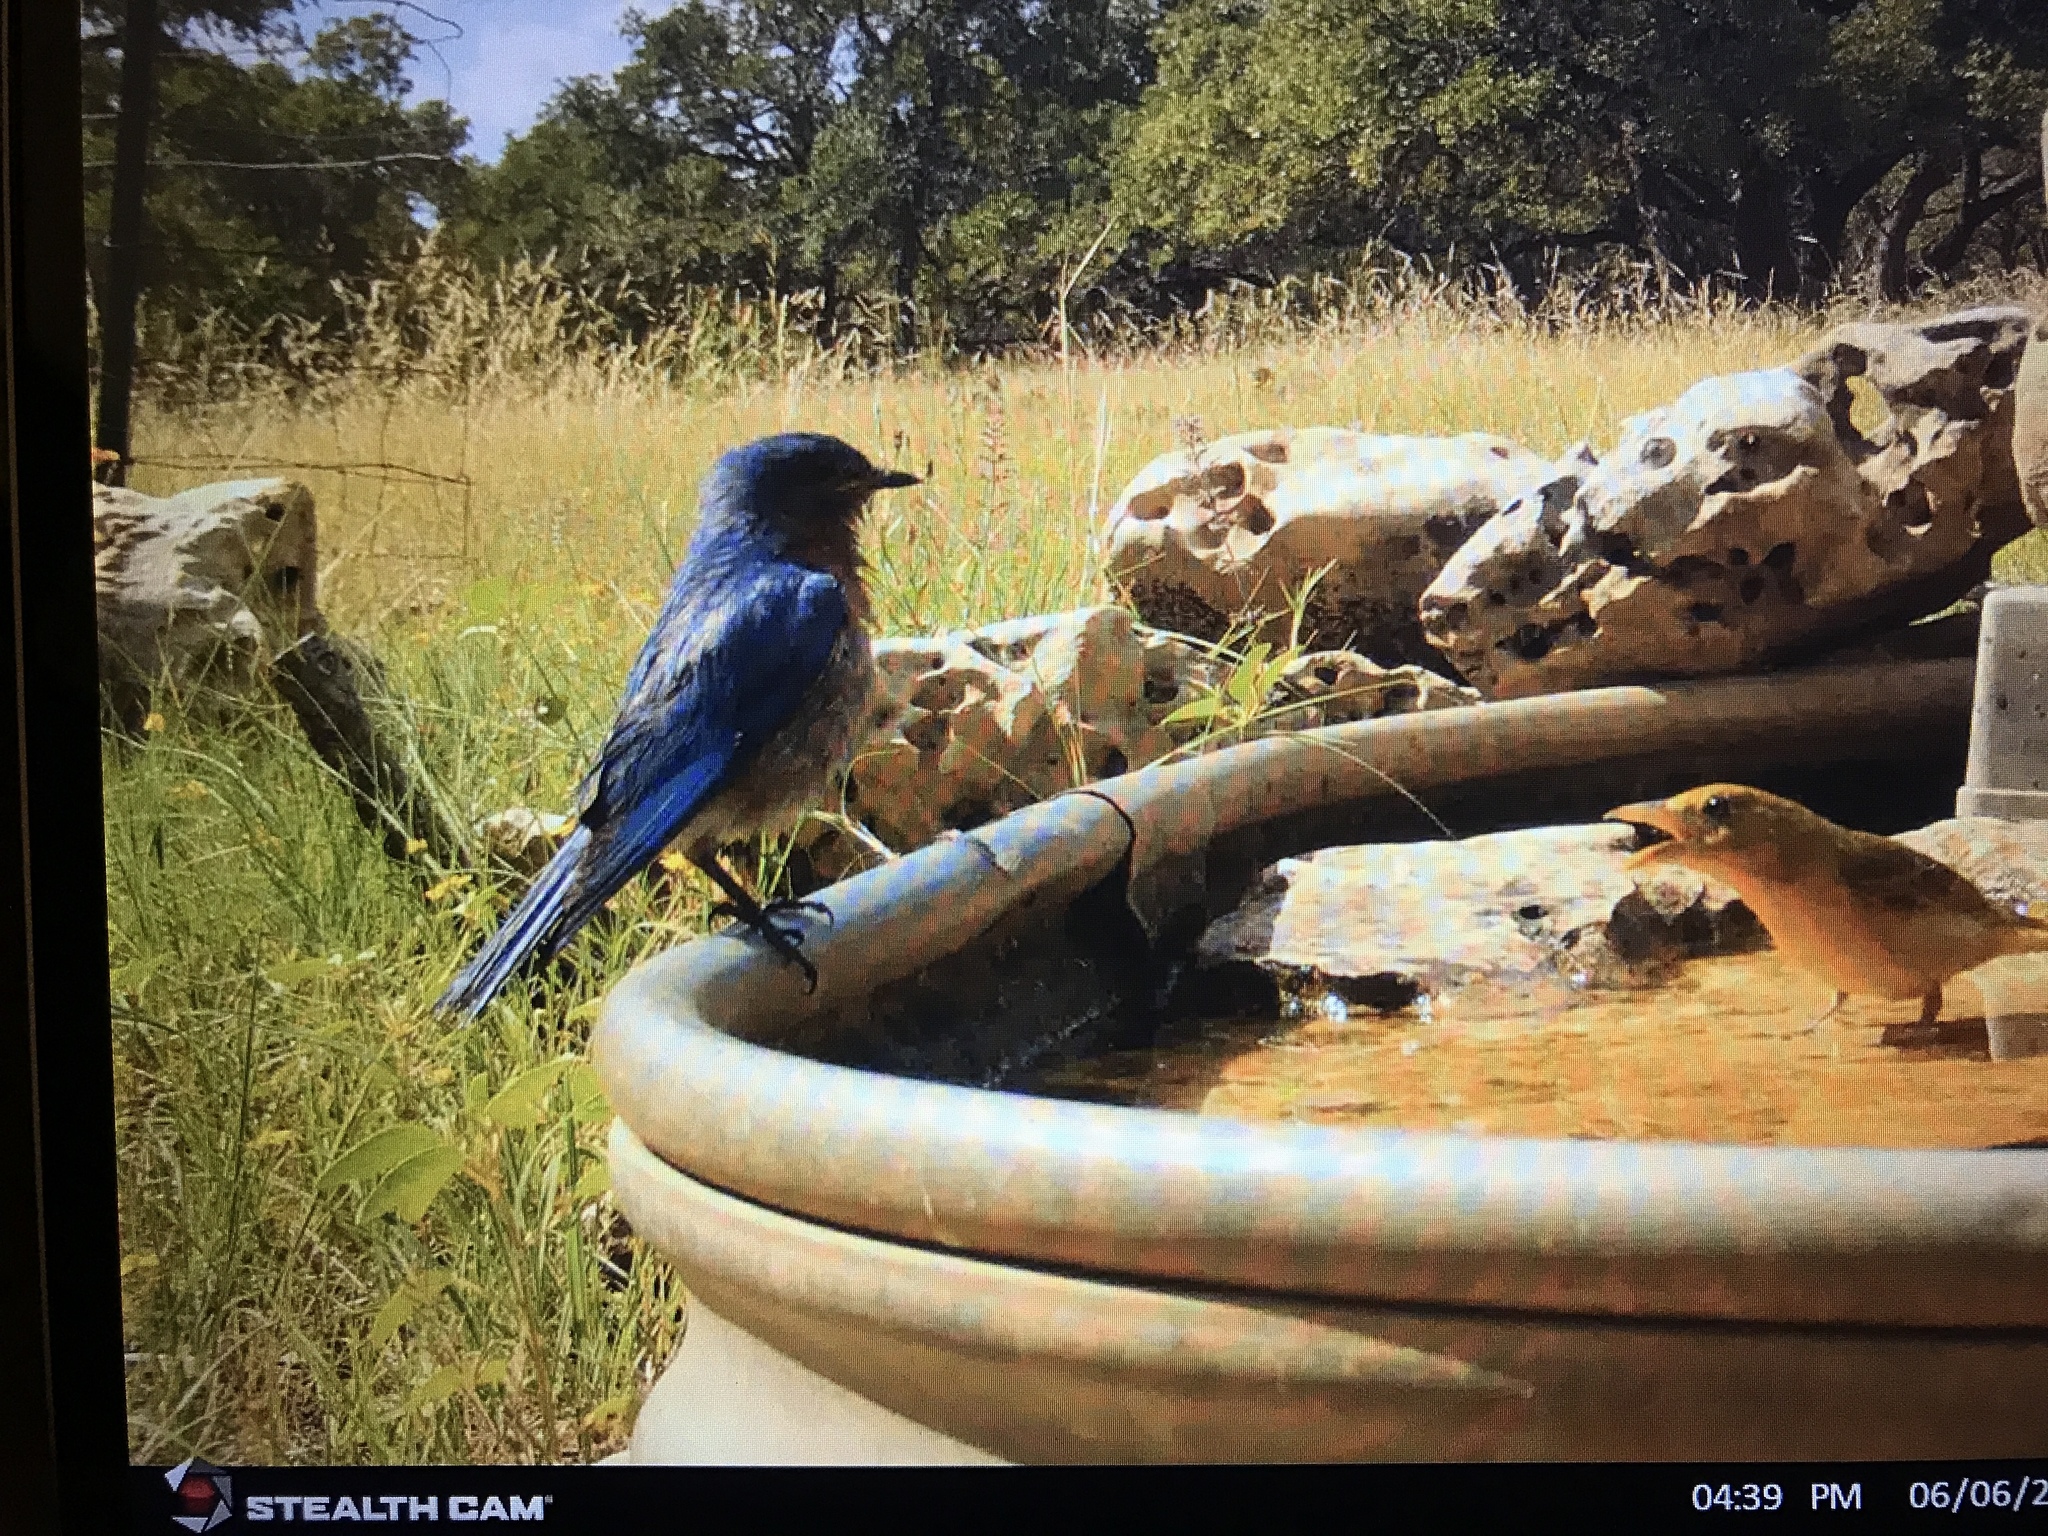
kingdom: Animalia
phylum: Chordata
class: Aves
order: Passeriformes
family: Turdidae
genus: Sialia
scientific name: Sialia sialis
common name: Eastern bluebird
